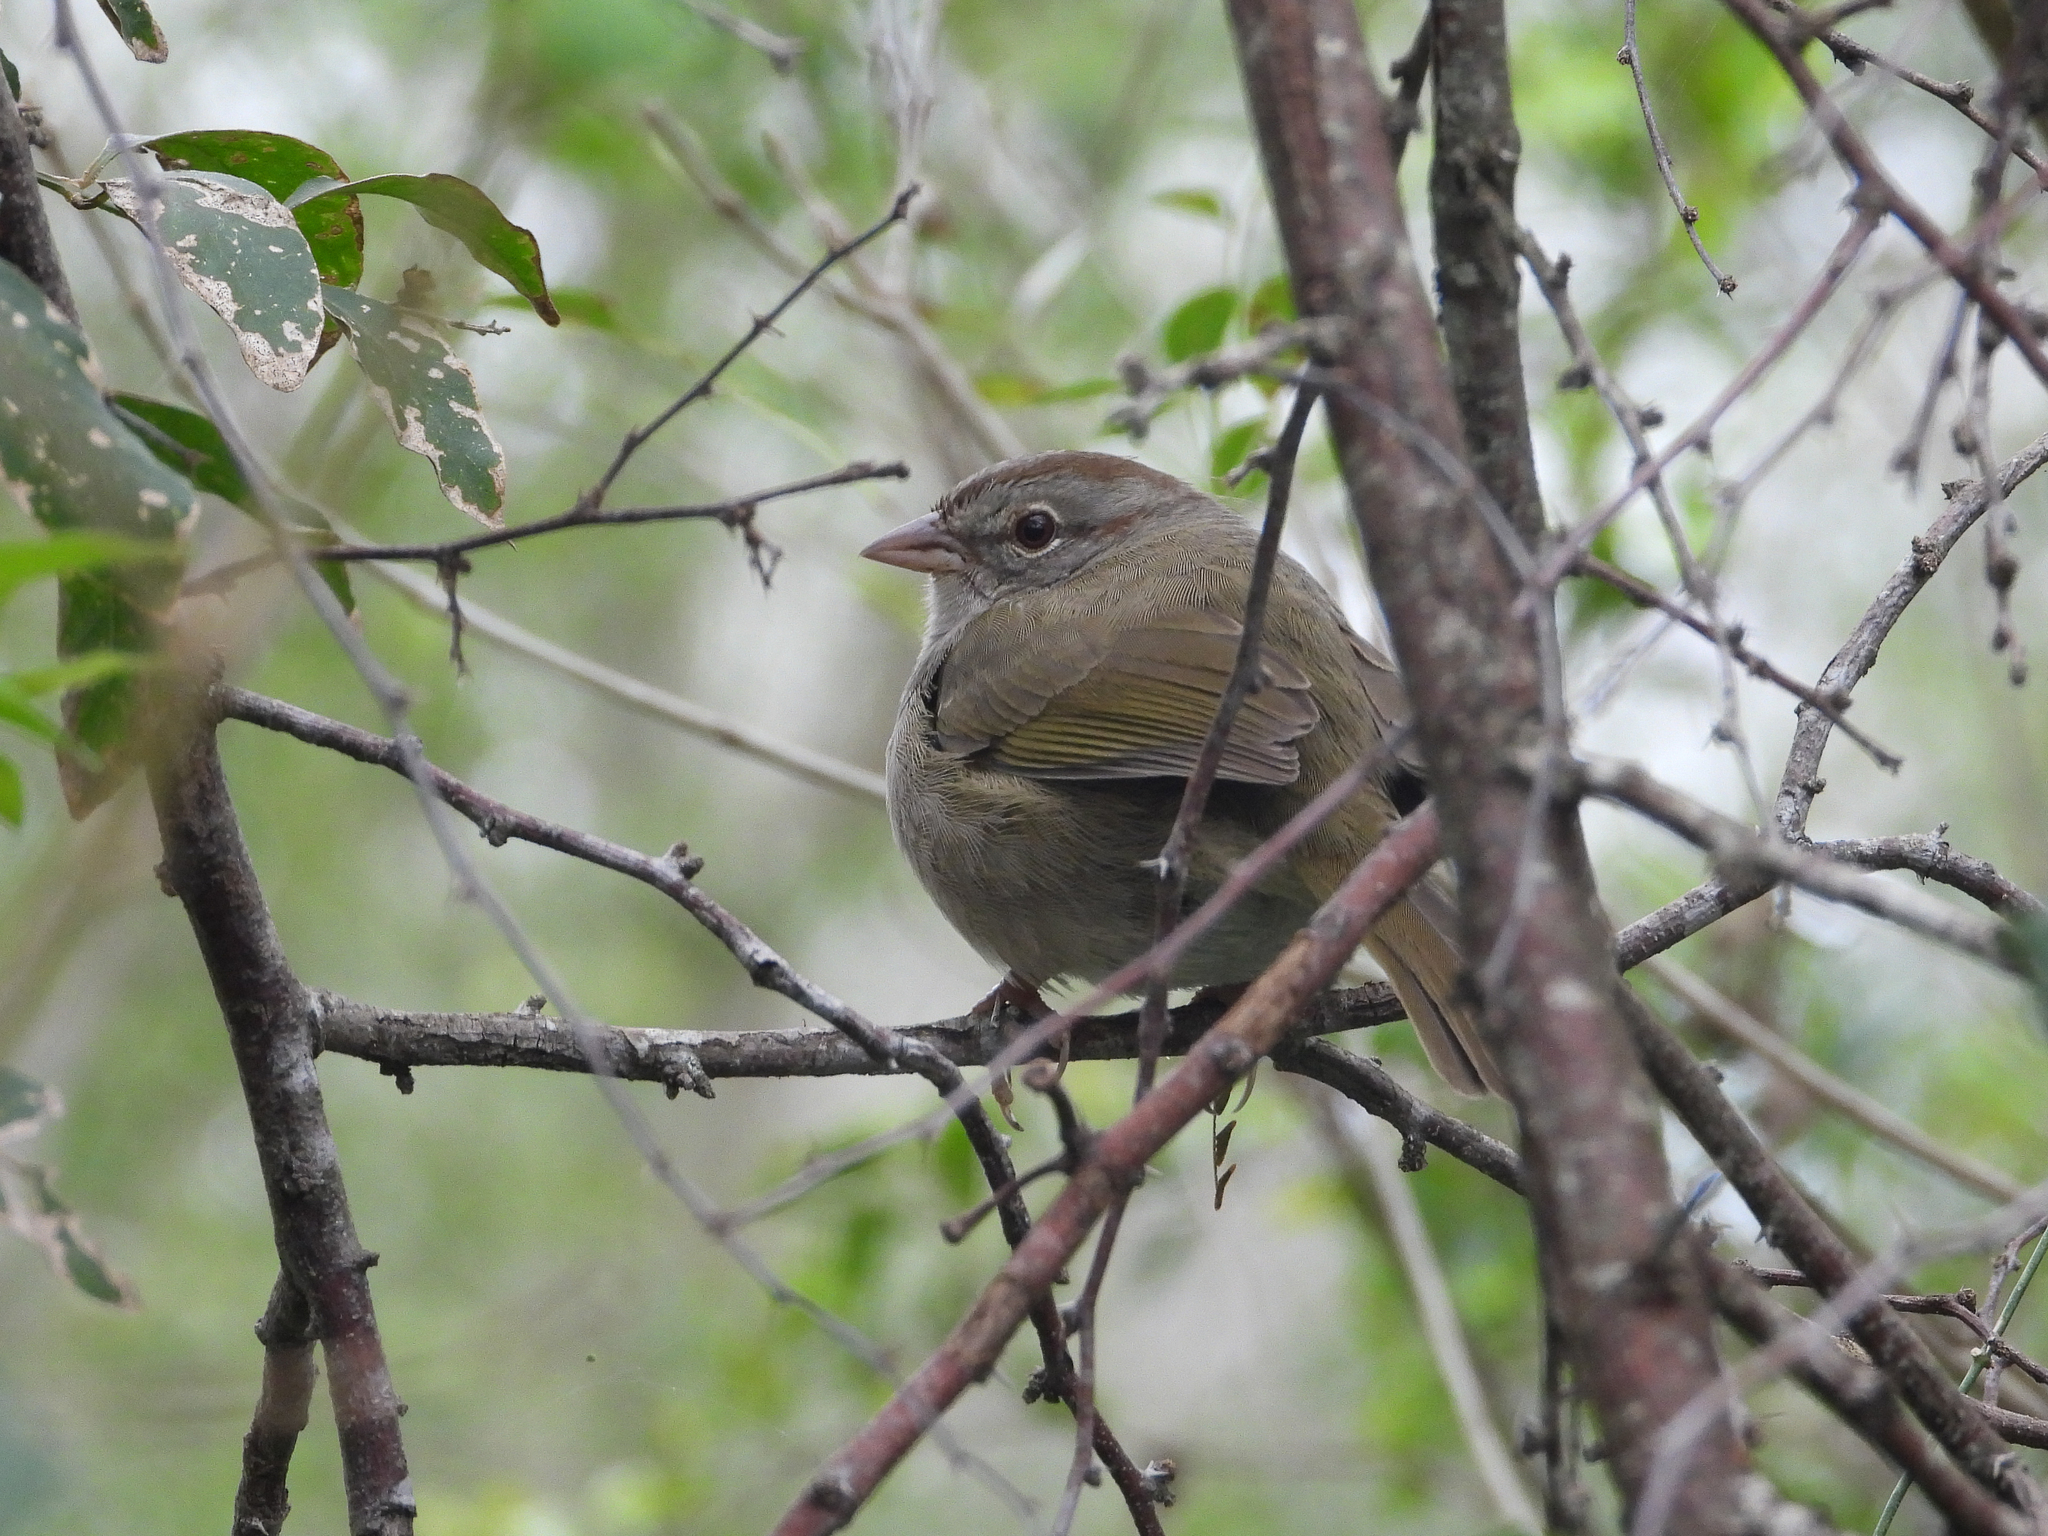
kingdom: Animalia
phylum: Chordata
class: Aves
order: Passeriformes
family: Passerellidae
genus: Arremonops
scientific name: Arremonops rufivirgatus
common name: Olive sparrow
